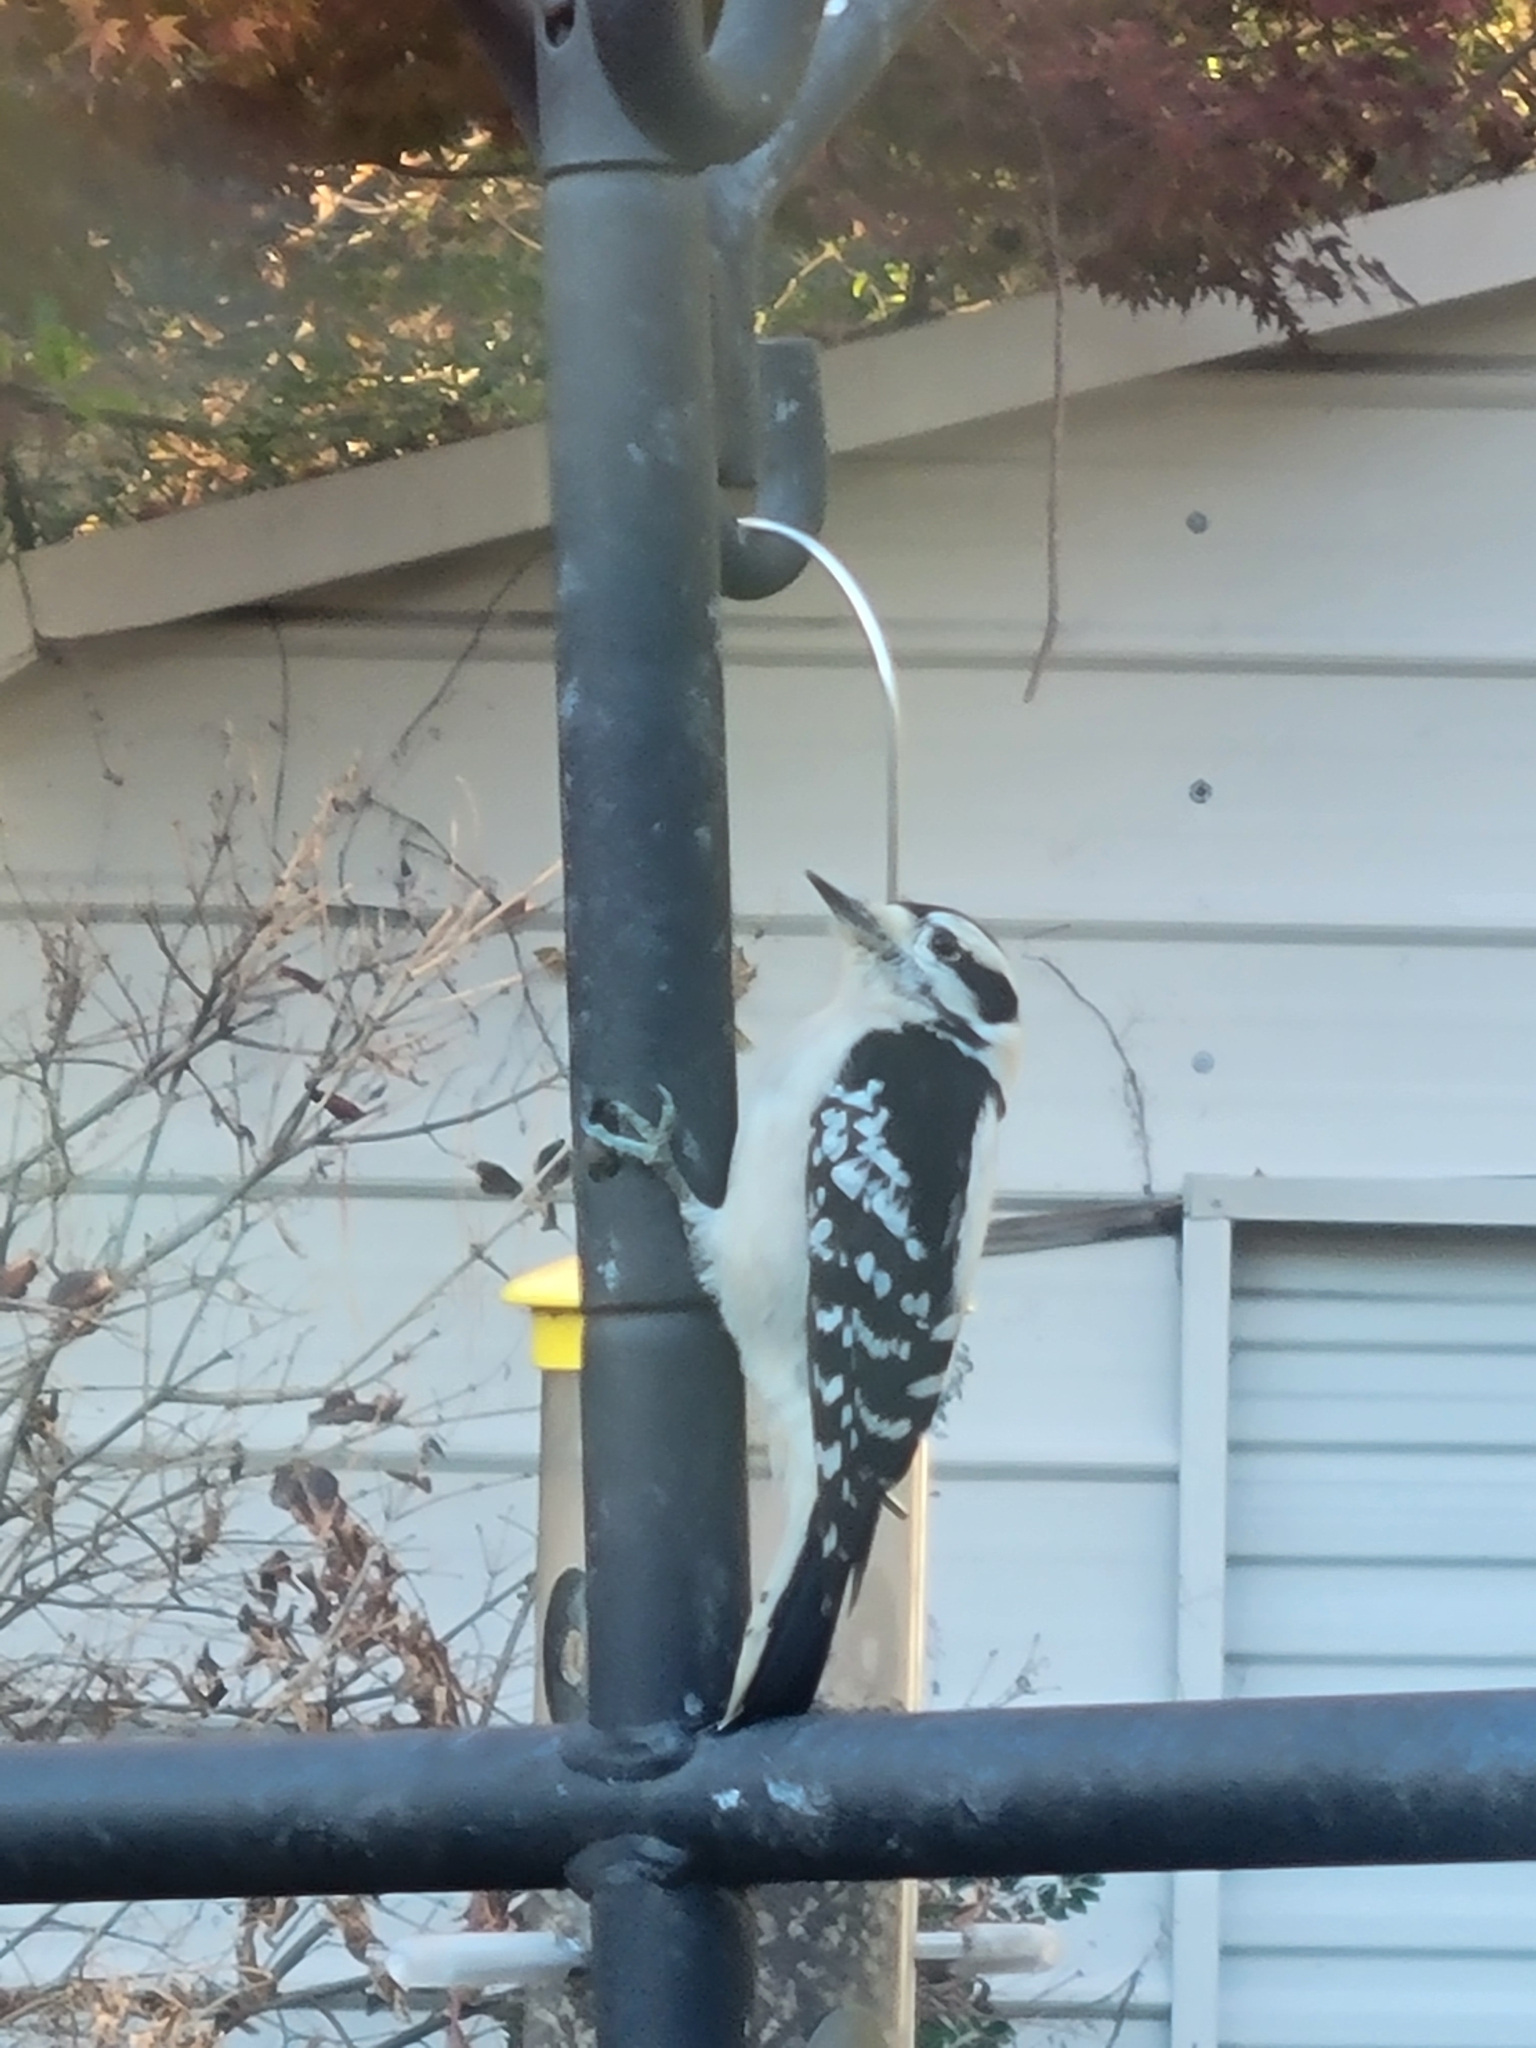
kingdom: Animalia
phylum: Chordata
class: Aves
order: Piciformes
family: Picidae
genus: Dryobates
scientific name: Dryobates pubescens
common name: Downy woodpecker
